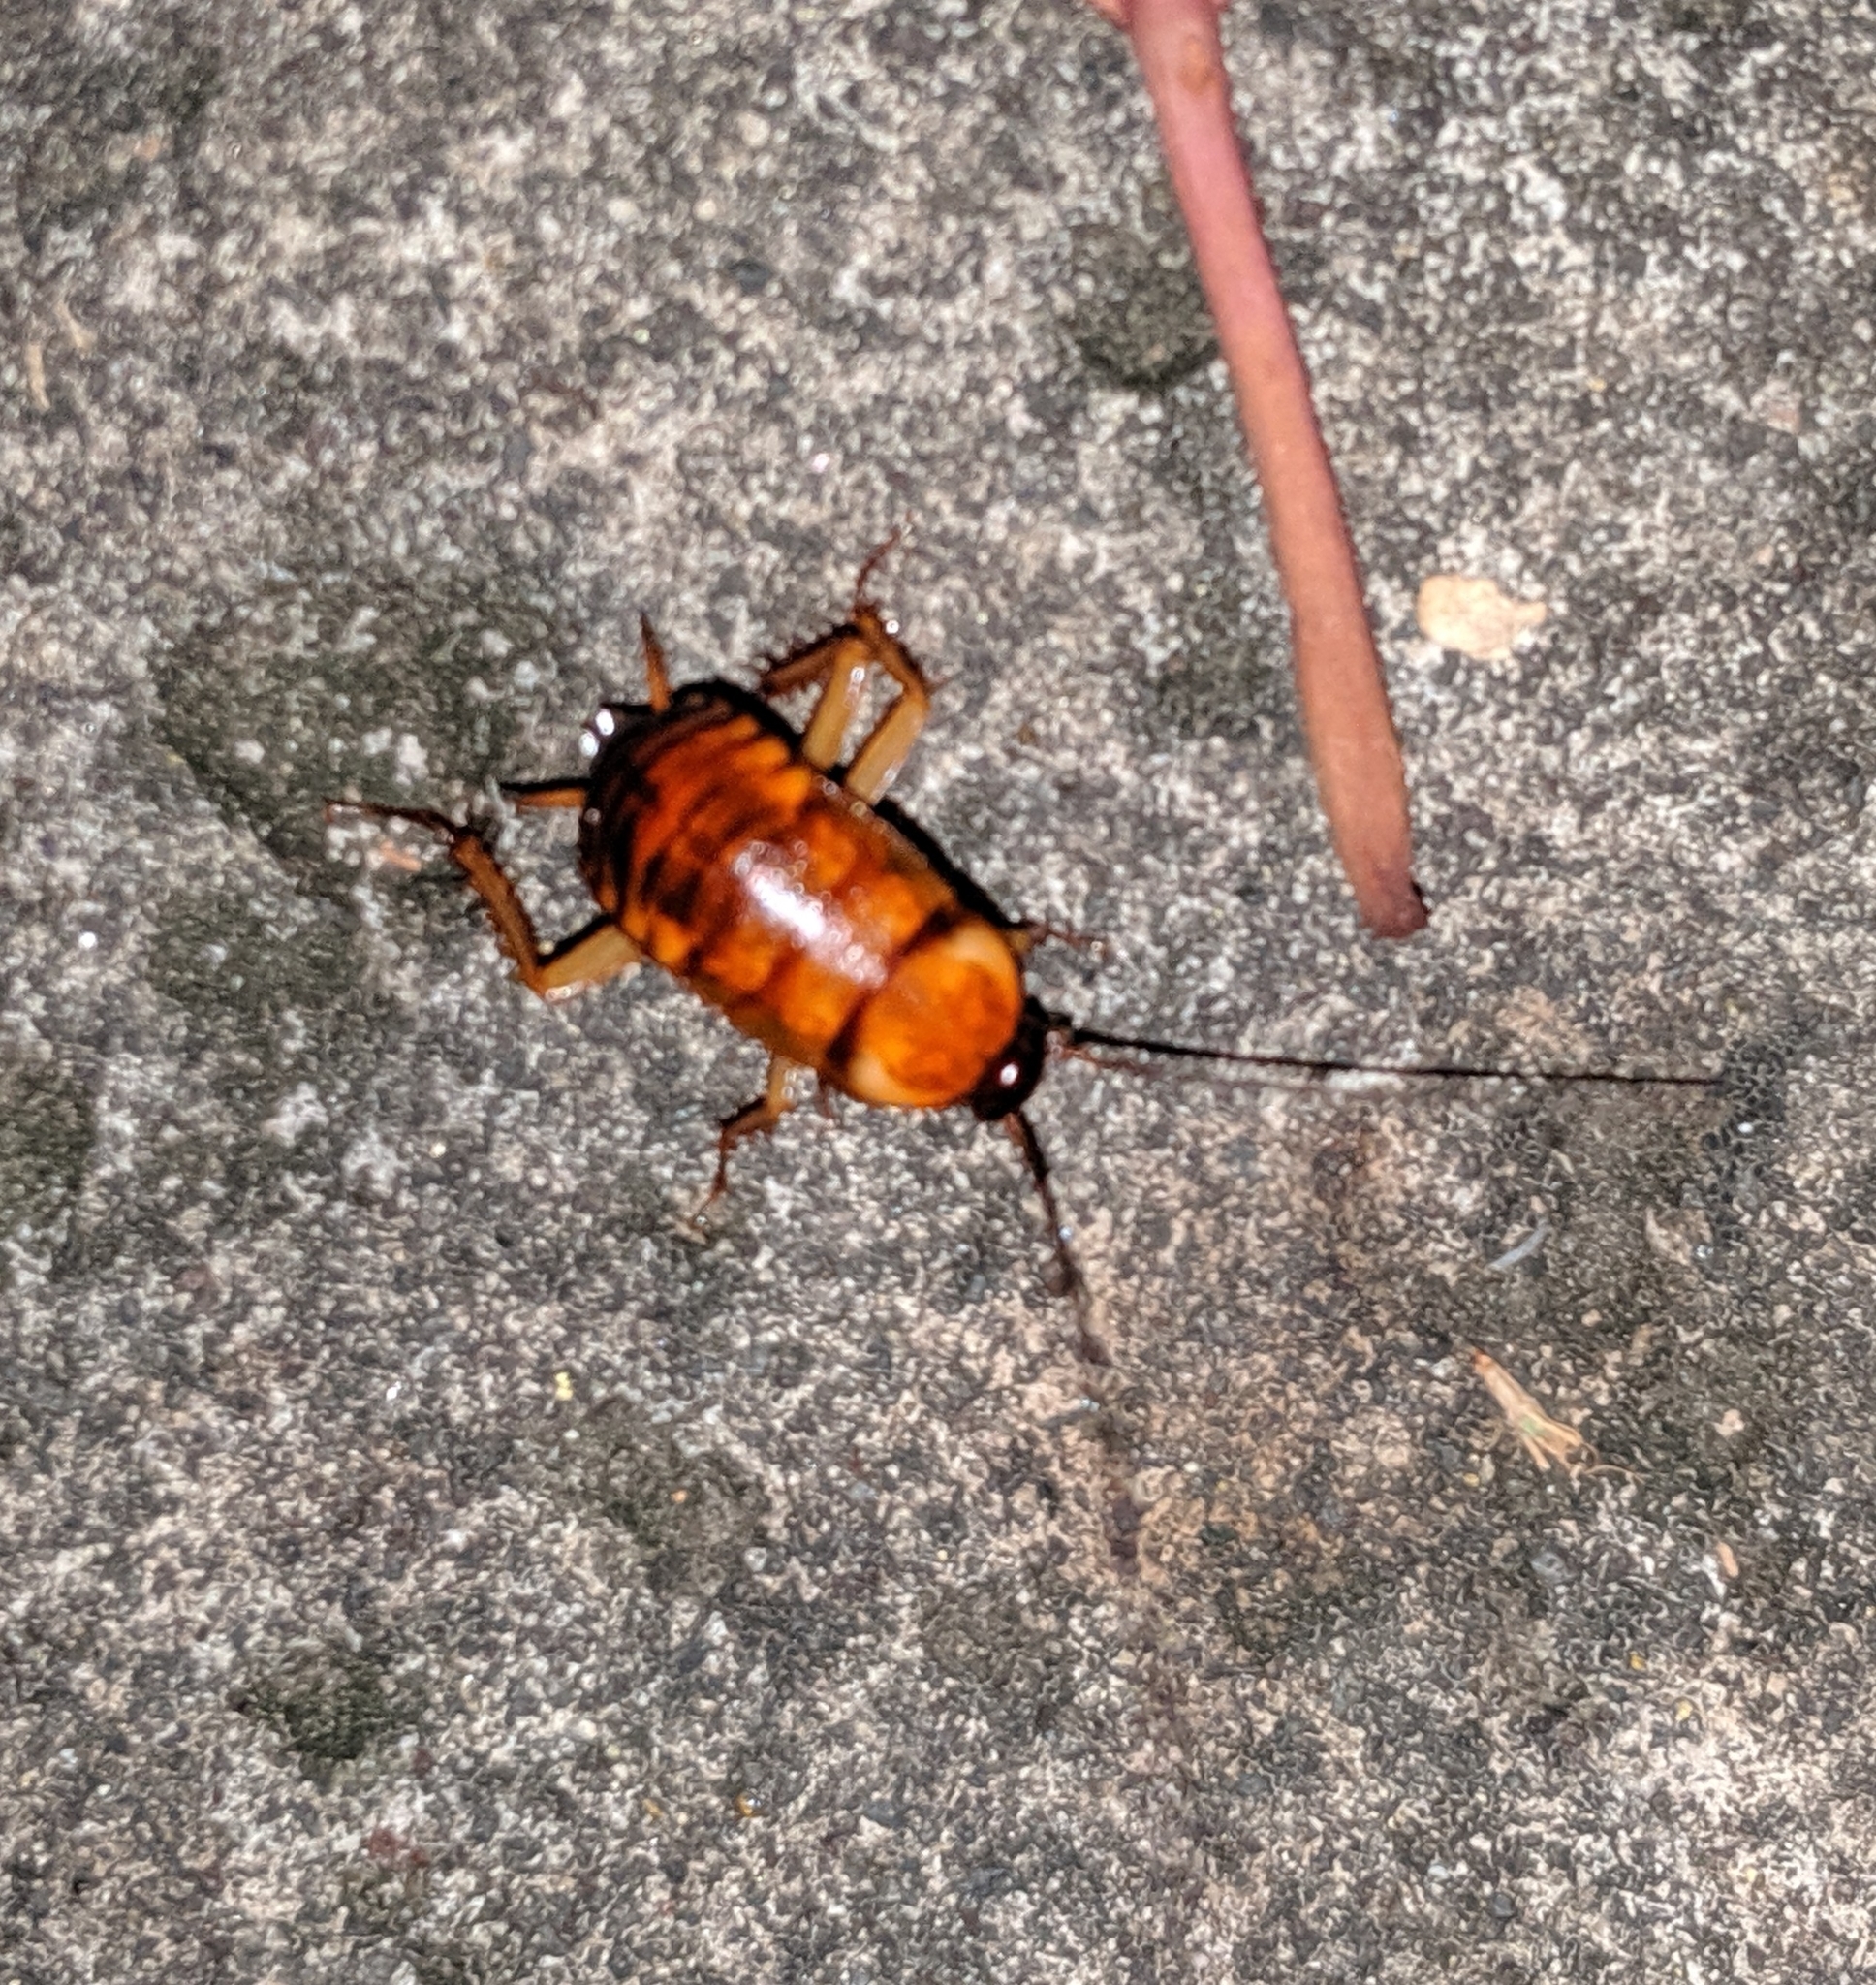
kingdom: Animalia
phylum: Arthropoda
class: Insecta
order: Blattodea
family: Blattidae
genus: Periplaneta
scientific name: Periplaneta americana
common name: American cockroach
